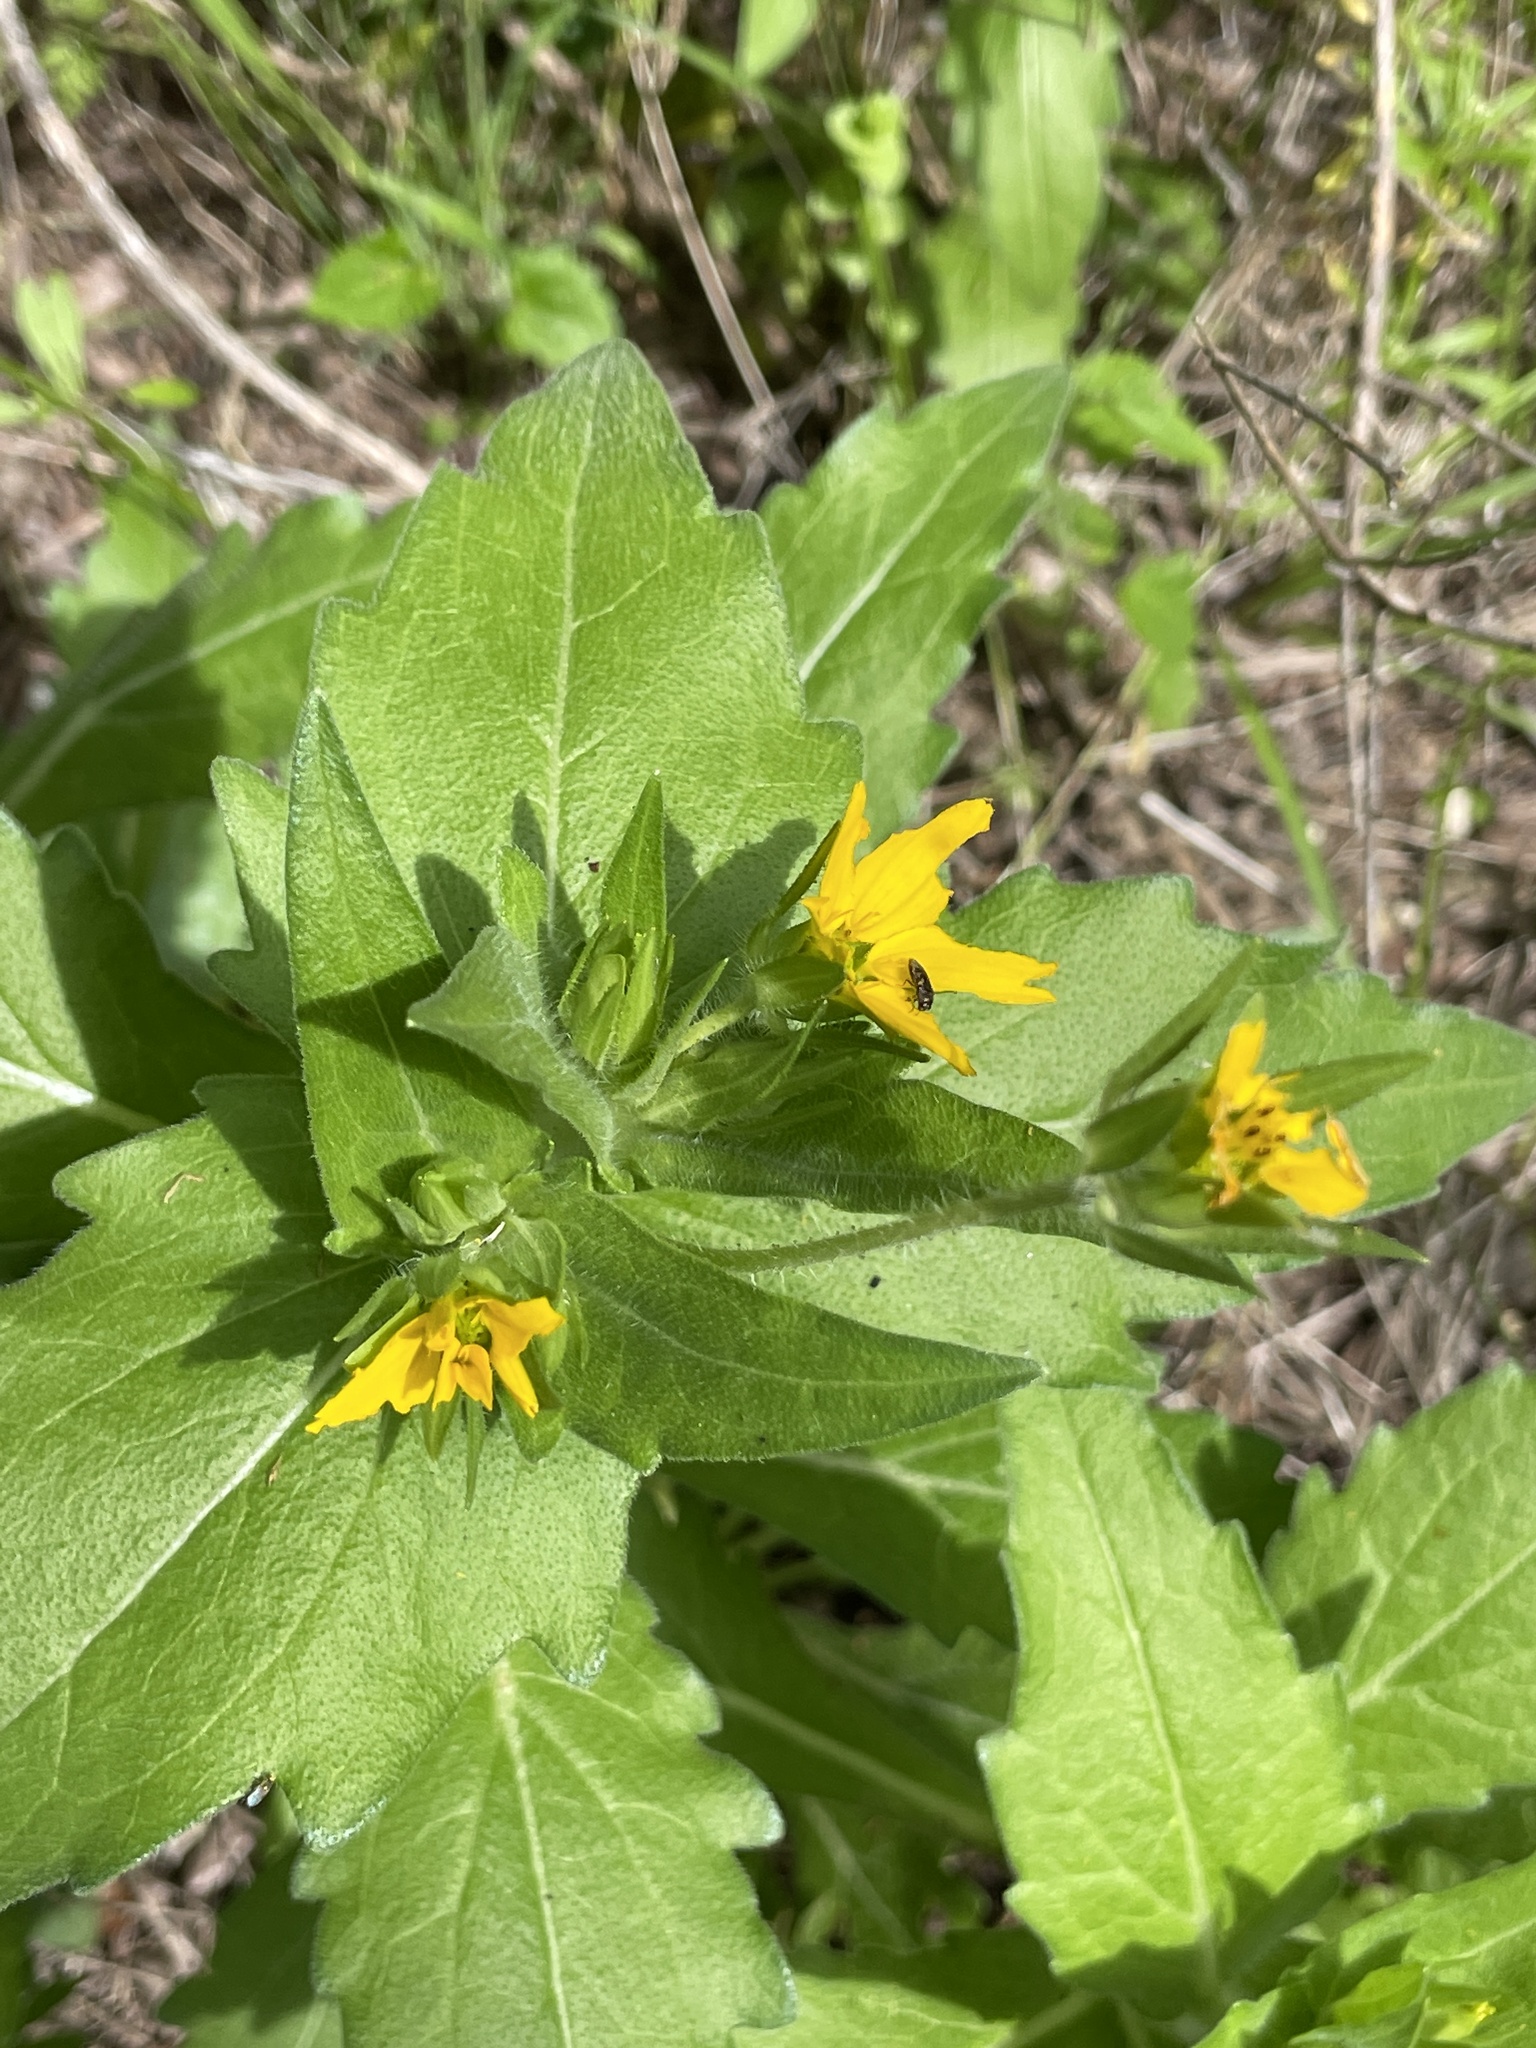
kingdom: Plantae
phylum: Tracheophyta
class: Magnoliopsida
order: Asterales
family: Asteraceae
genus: Lindheimera
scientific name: Lindheimera texana
